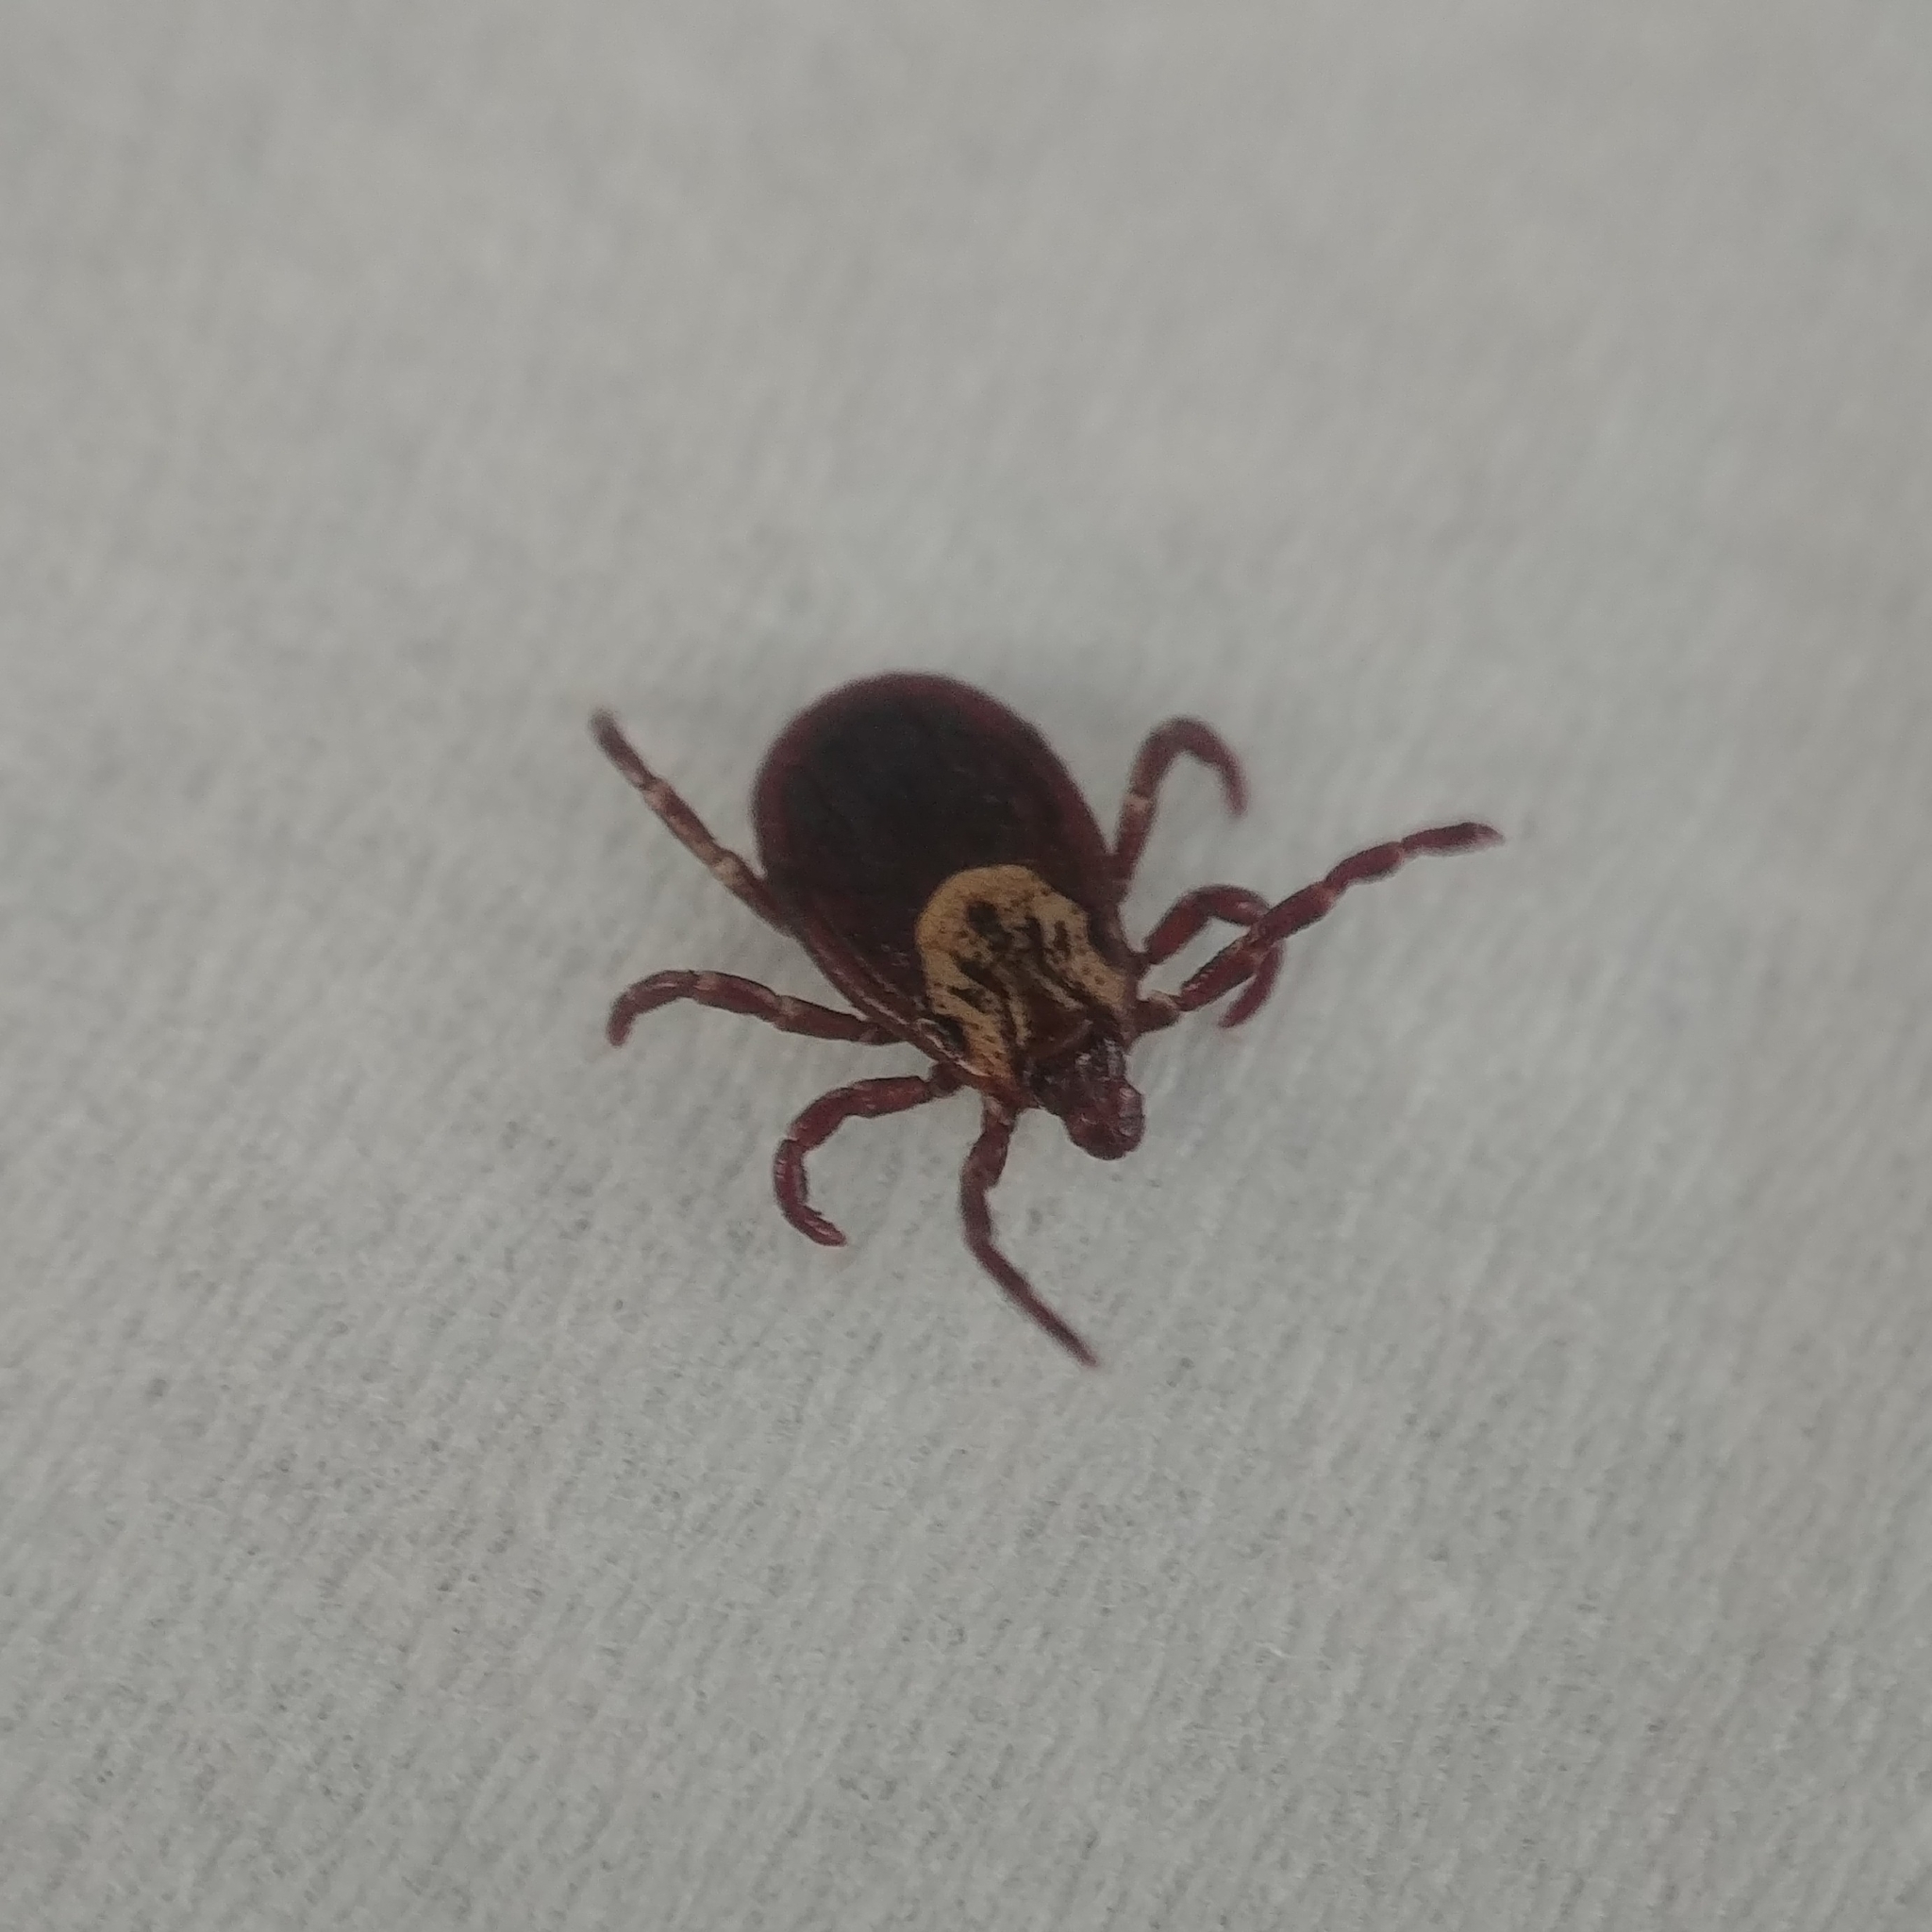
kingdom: Animalia
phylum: Arthropoda
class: Arachnida
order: Ixodida
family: Ixodidae
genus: Dermacentor
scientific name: Dermacentor variabilis
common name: American dog tick
